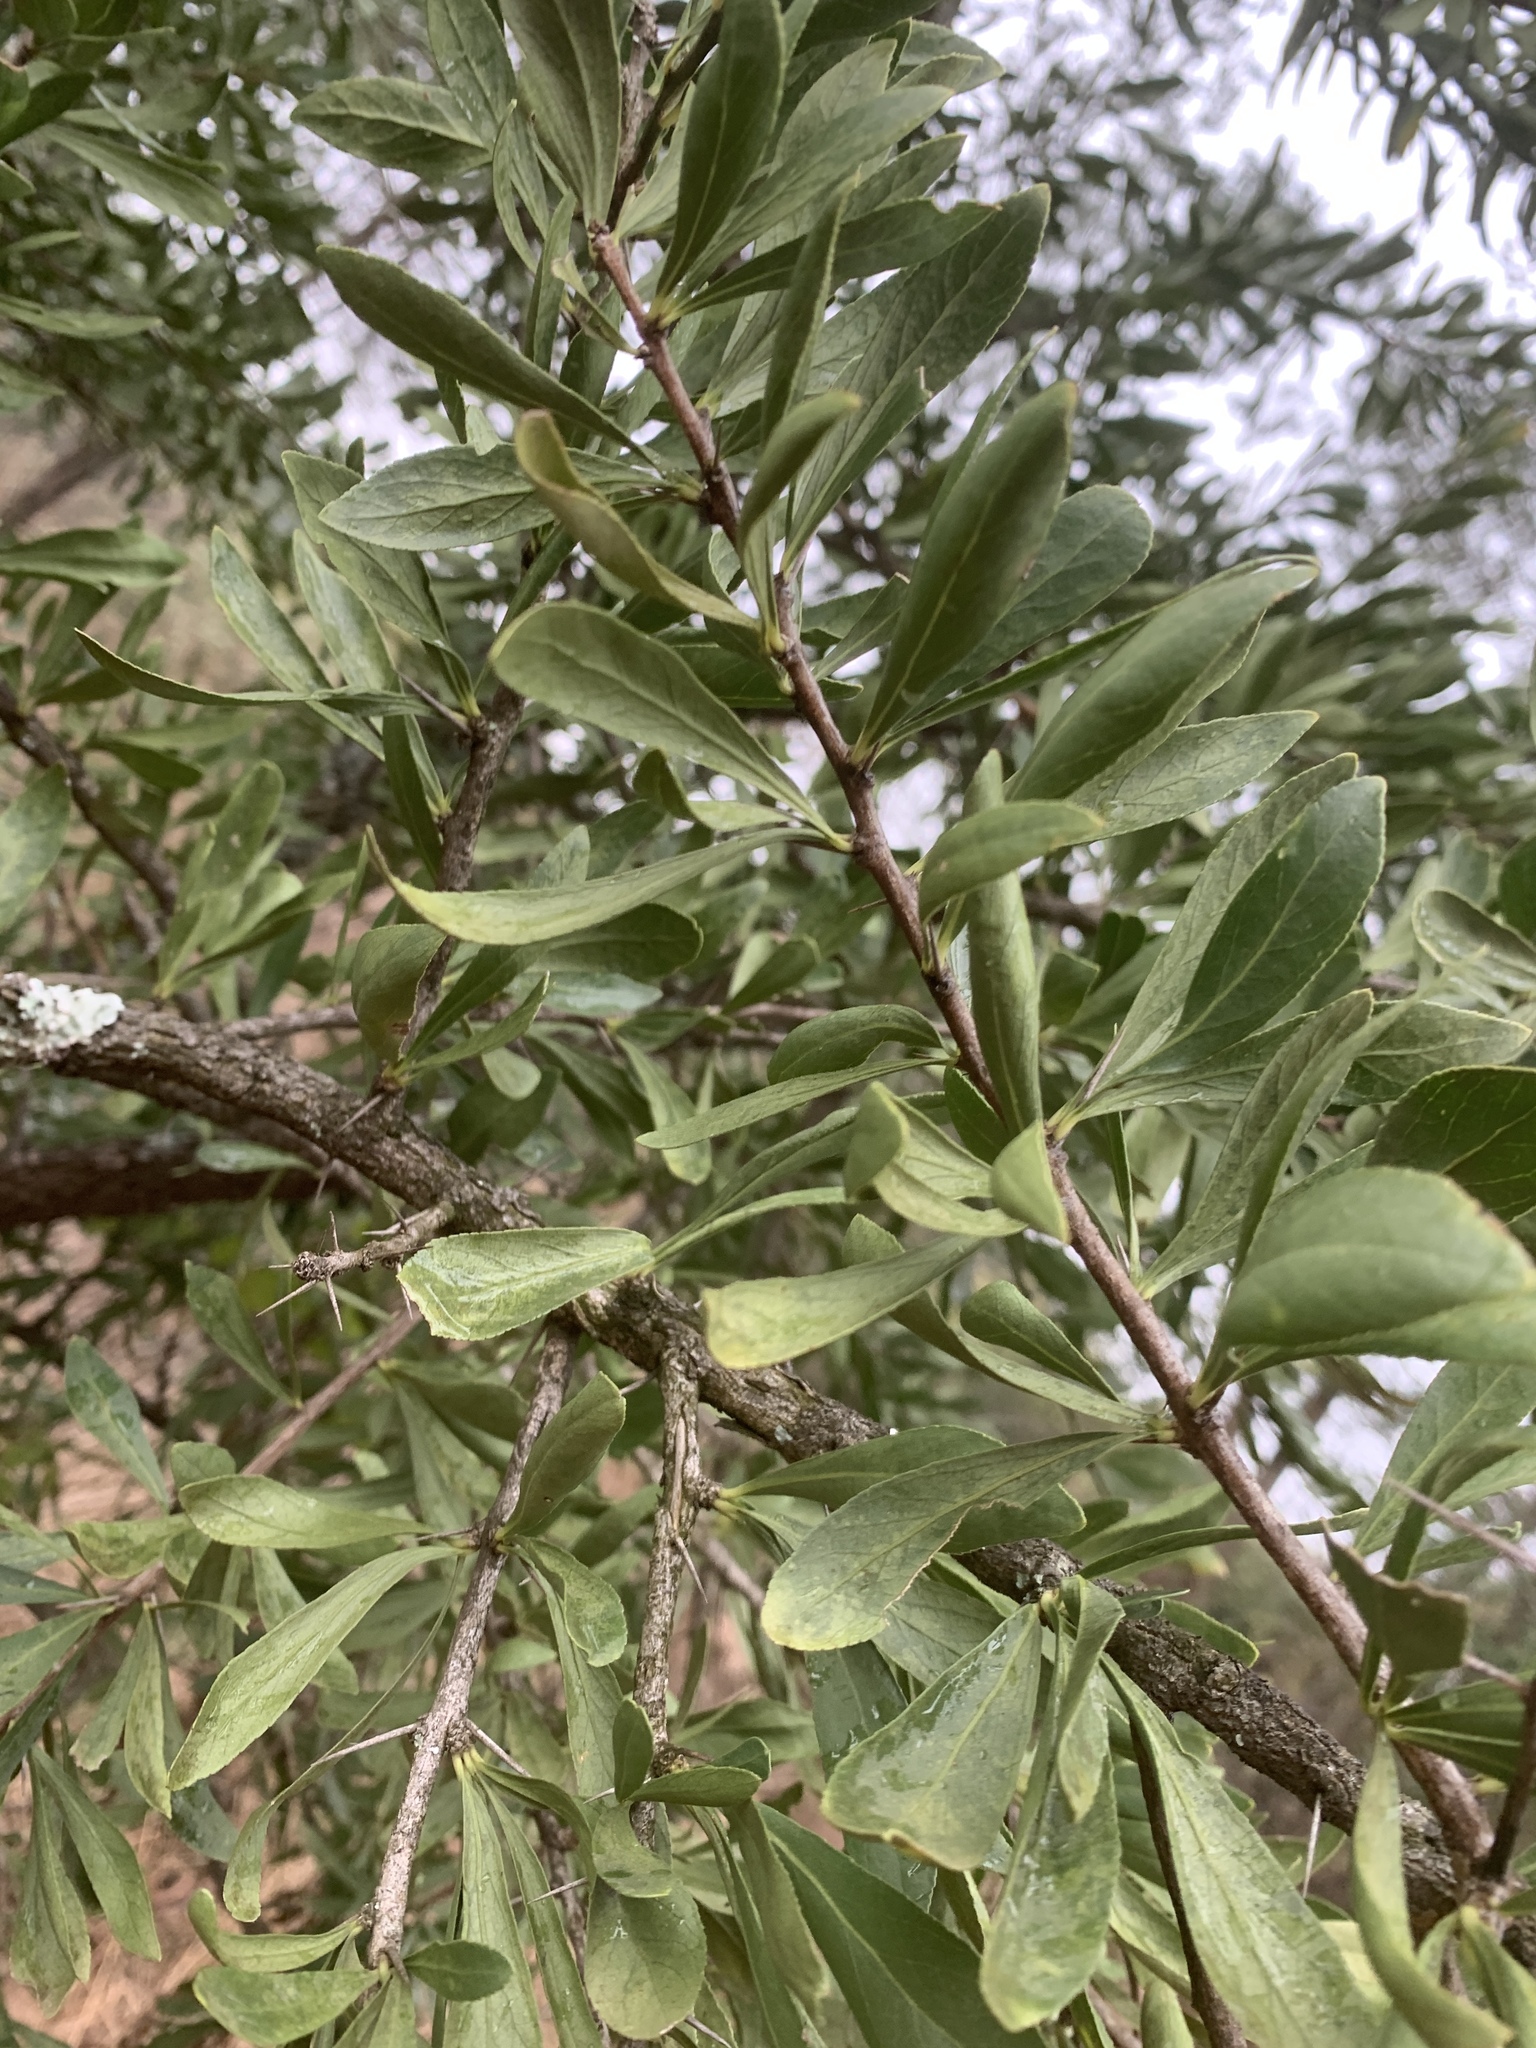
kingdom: Plantae
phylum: Tracheophyta
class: Magnoliopsida
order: Celastrales
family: Celastraceae
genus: Gymnosporia
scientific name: Gymnosporia buxifolia
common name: Common spike-thorn
